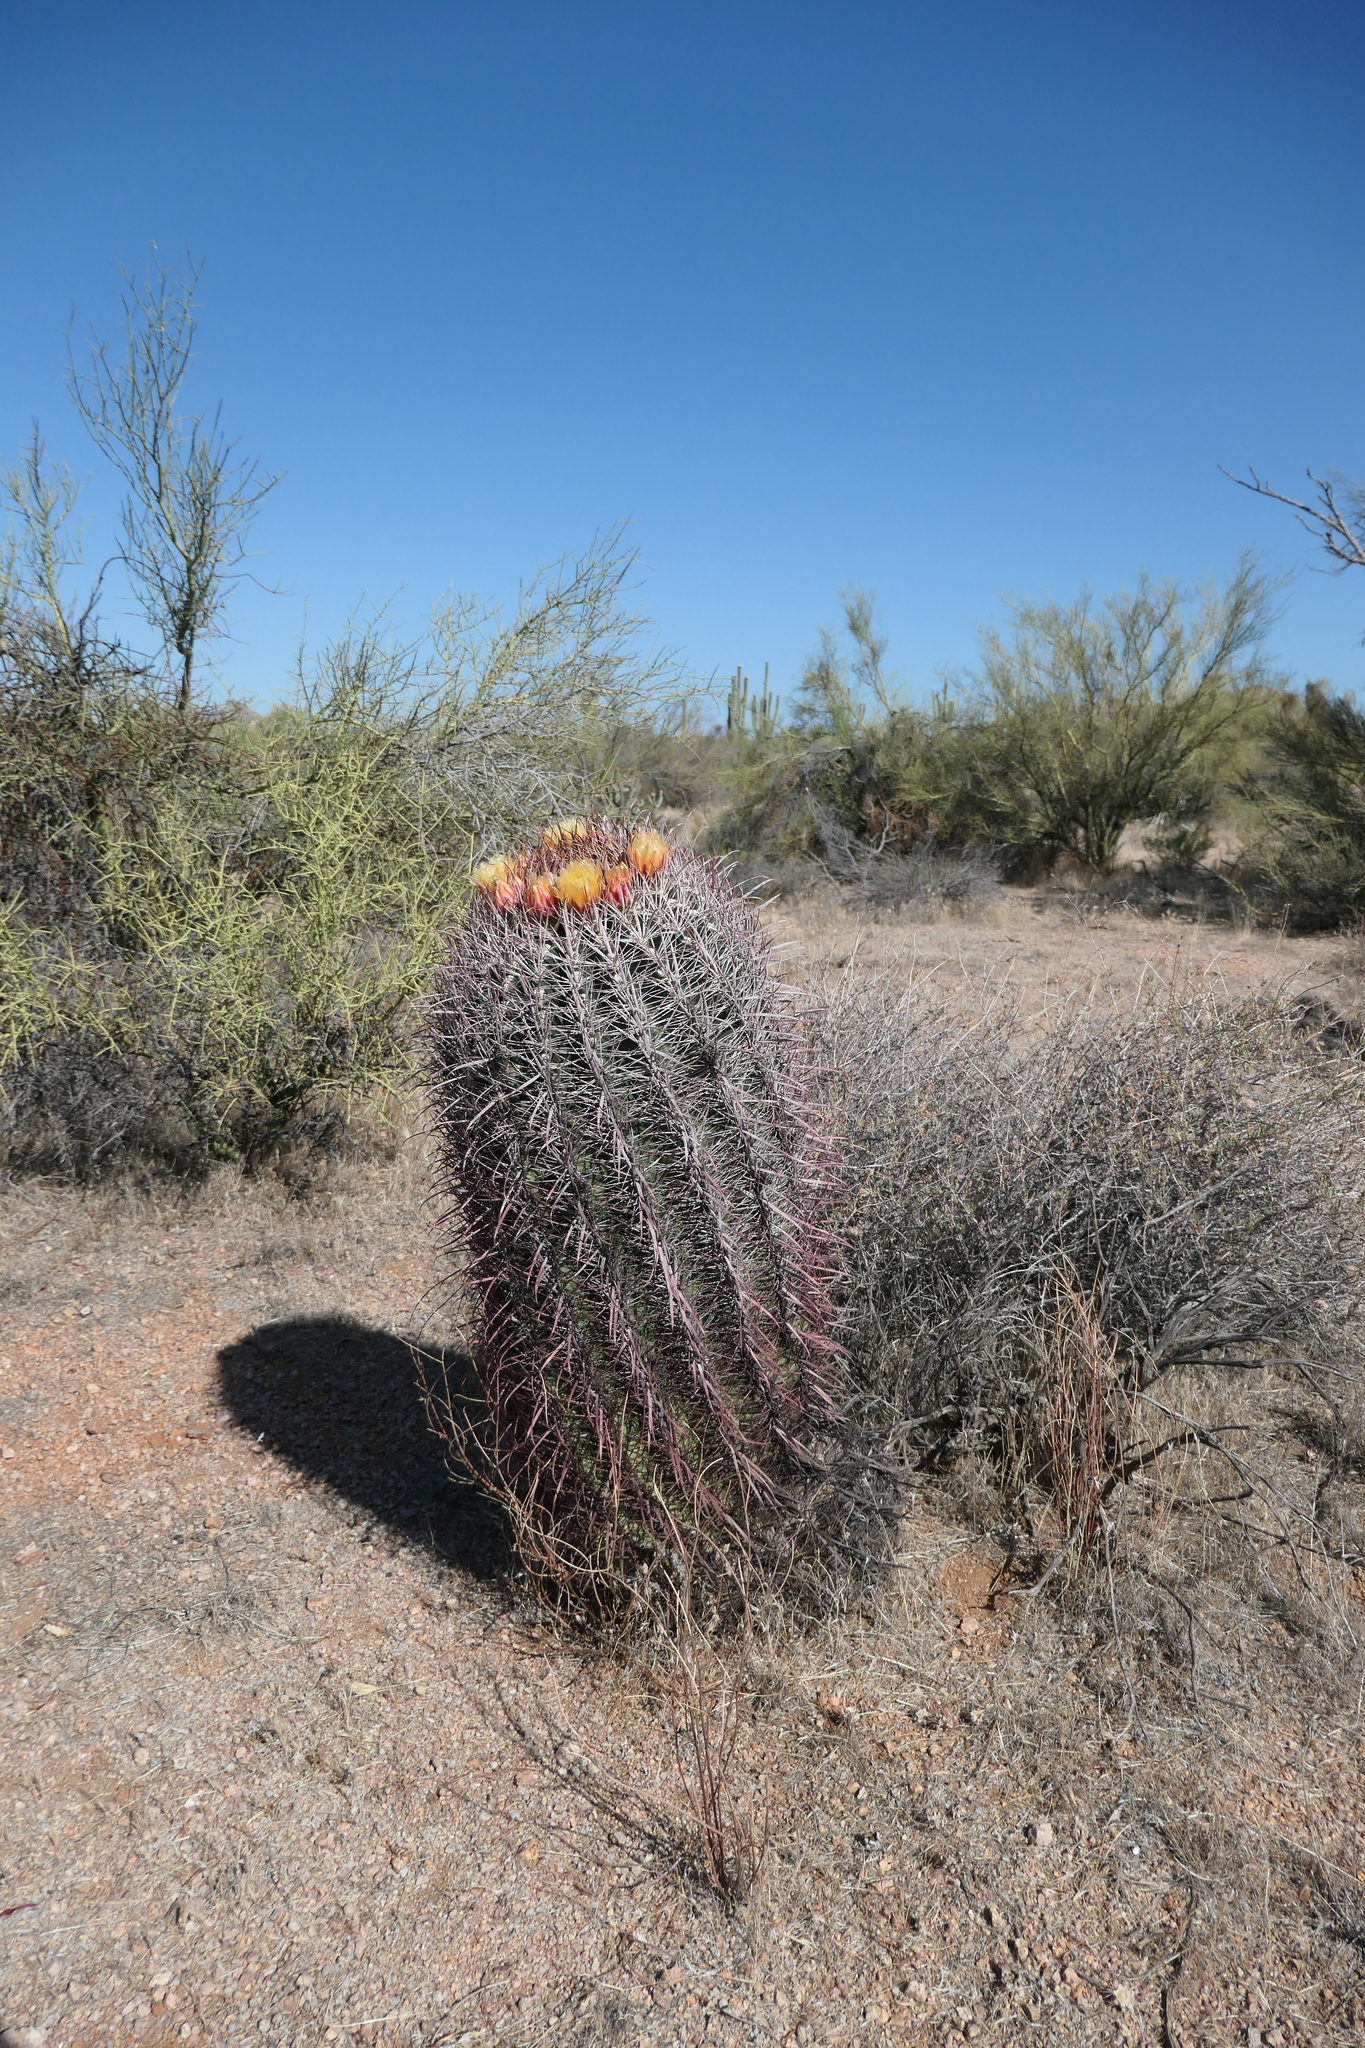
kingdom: Plantae
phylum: Tracheophyta
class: Magnoliopsida
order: Caryophyllales
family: Cactaceae
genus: Ferocactus
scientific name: Ferocactus cylindraceus
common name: California barrel cactus
